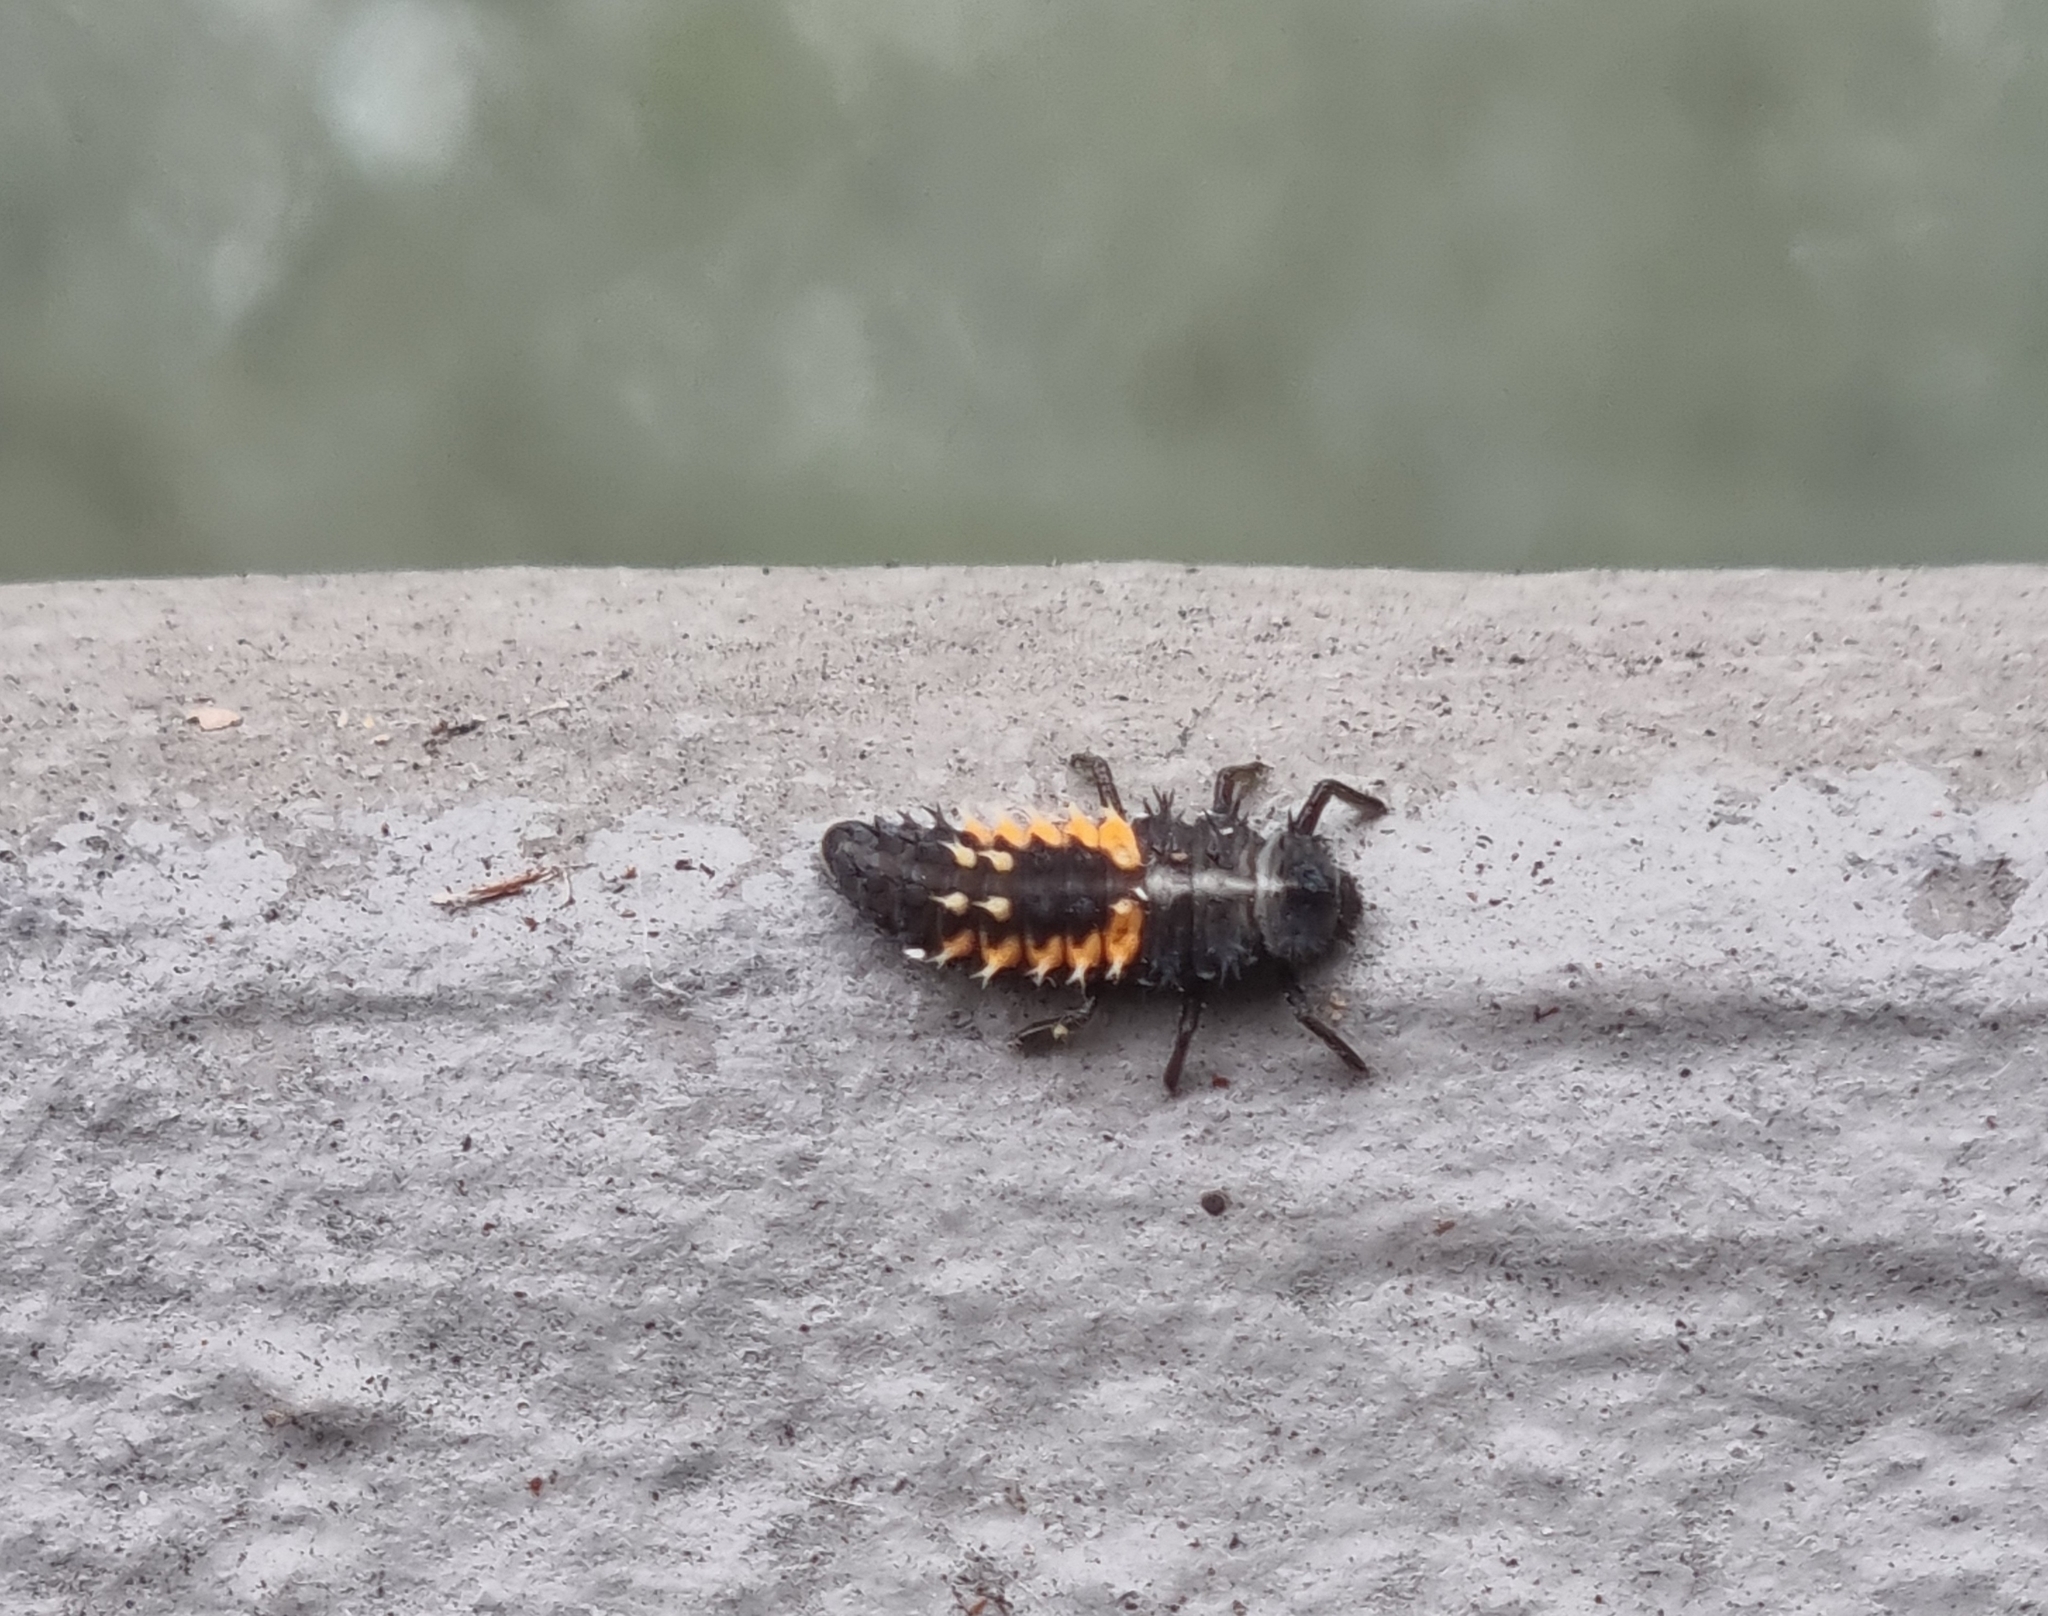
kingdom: Animalia
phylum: Arthropoda
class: Insecta
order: Coleoptera
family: Coccinellidae
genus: Harmonia
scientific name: Harmonia axyridis
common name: Harlequin ladybird
